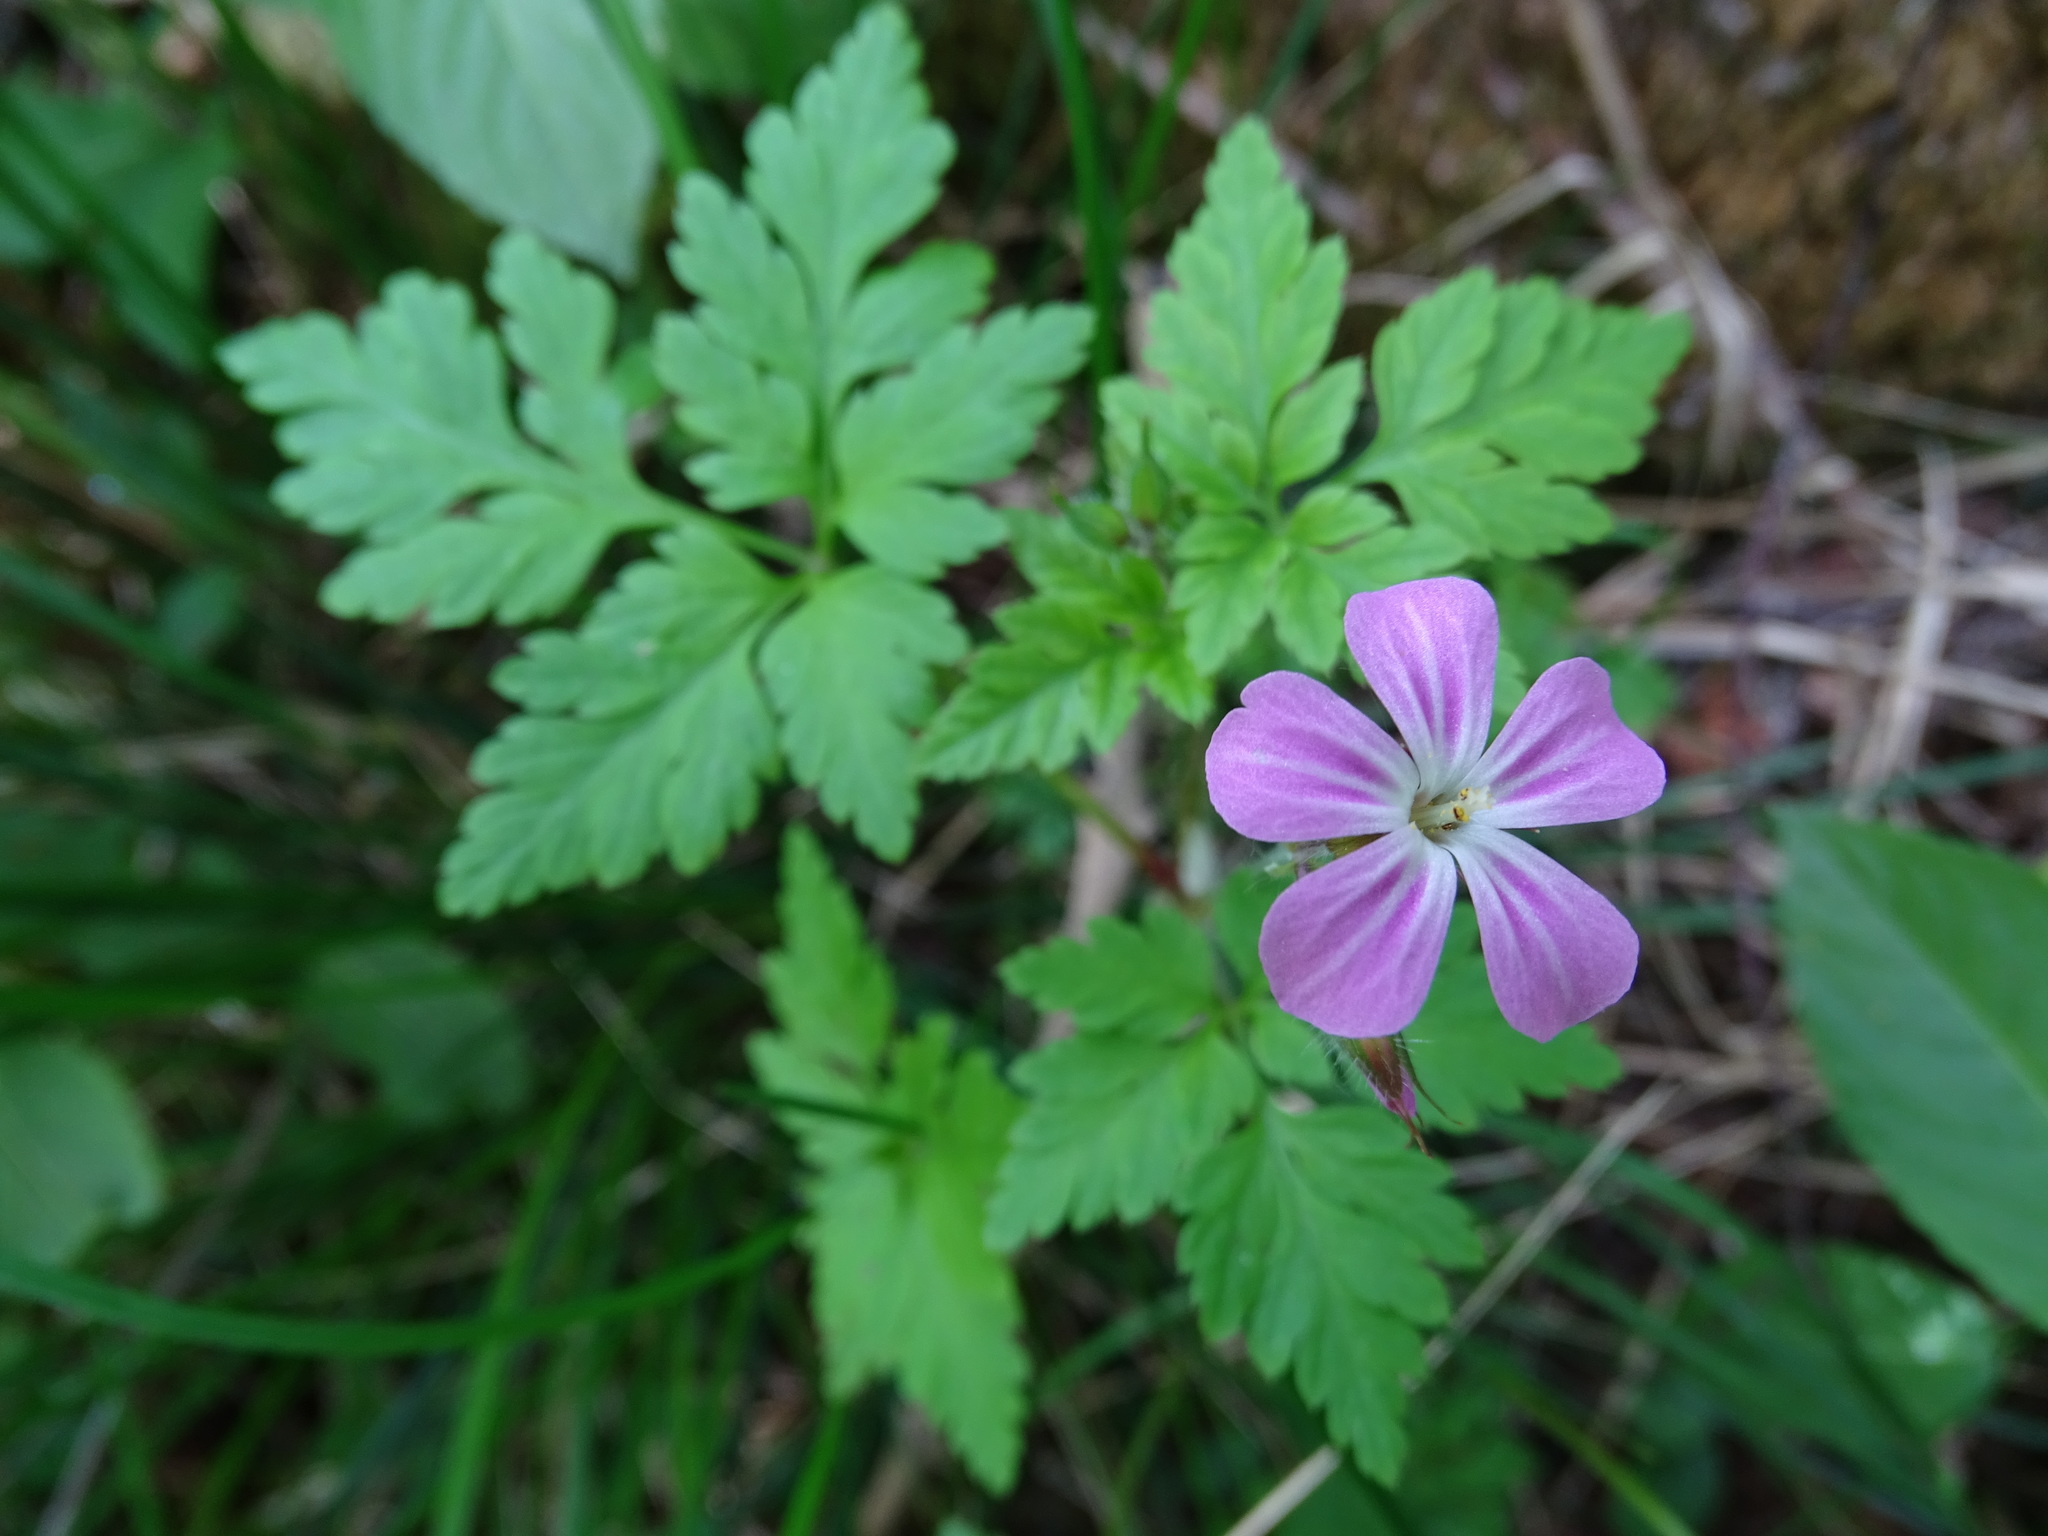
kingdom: Plantae
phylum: Tracheophyta
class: Magnoliopsida
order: Geraniales
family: Geraniaceae
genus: Geranium
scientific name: Geranium robertianum
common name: Herb-robert
